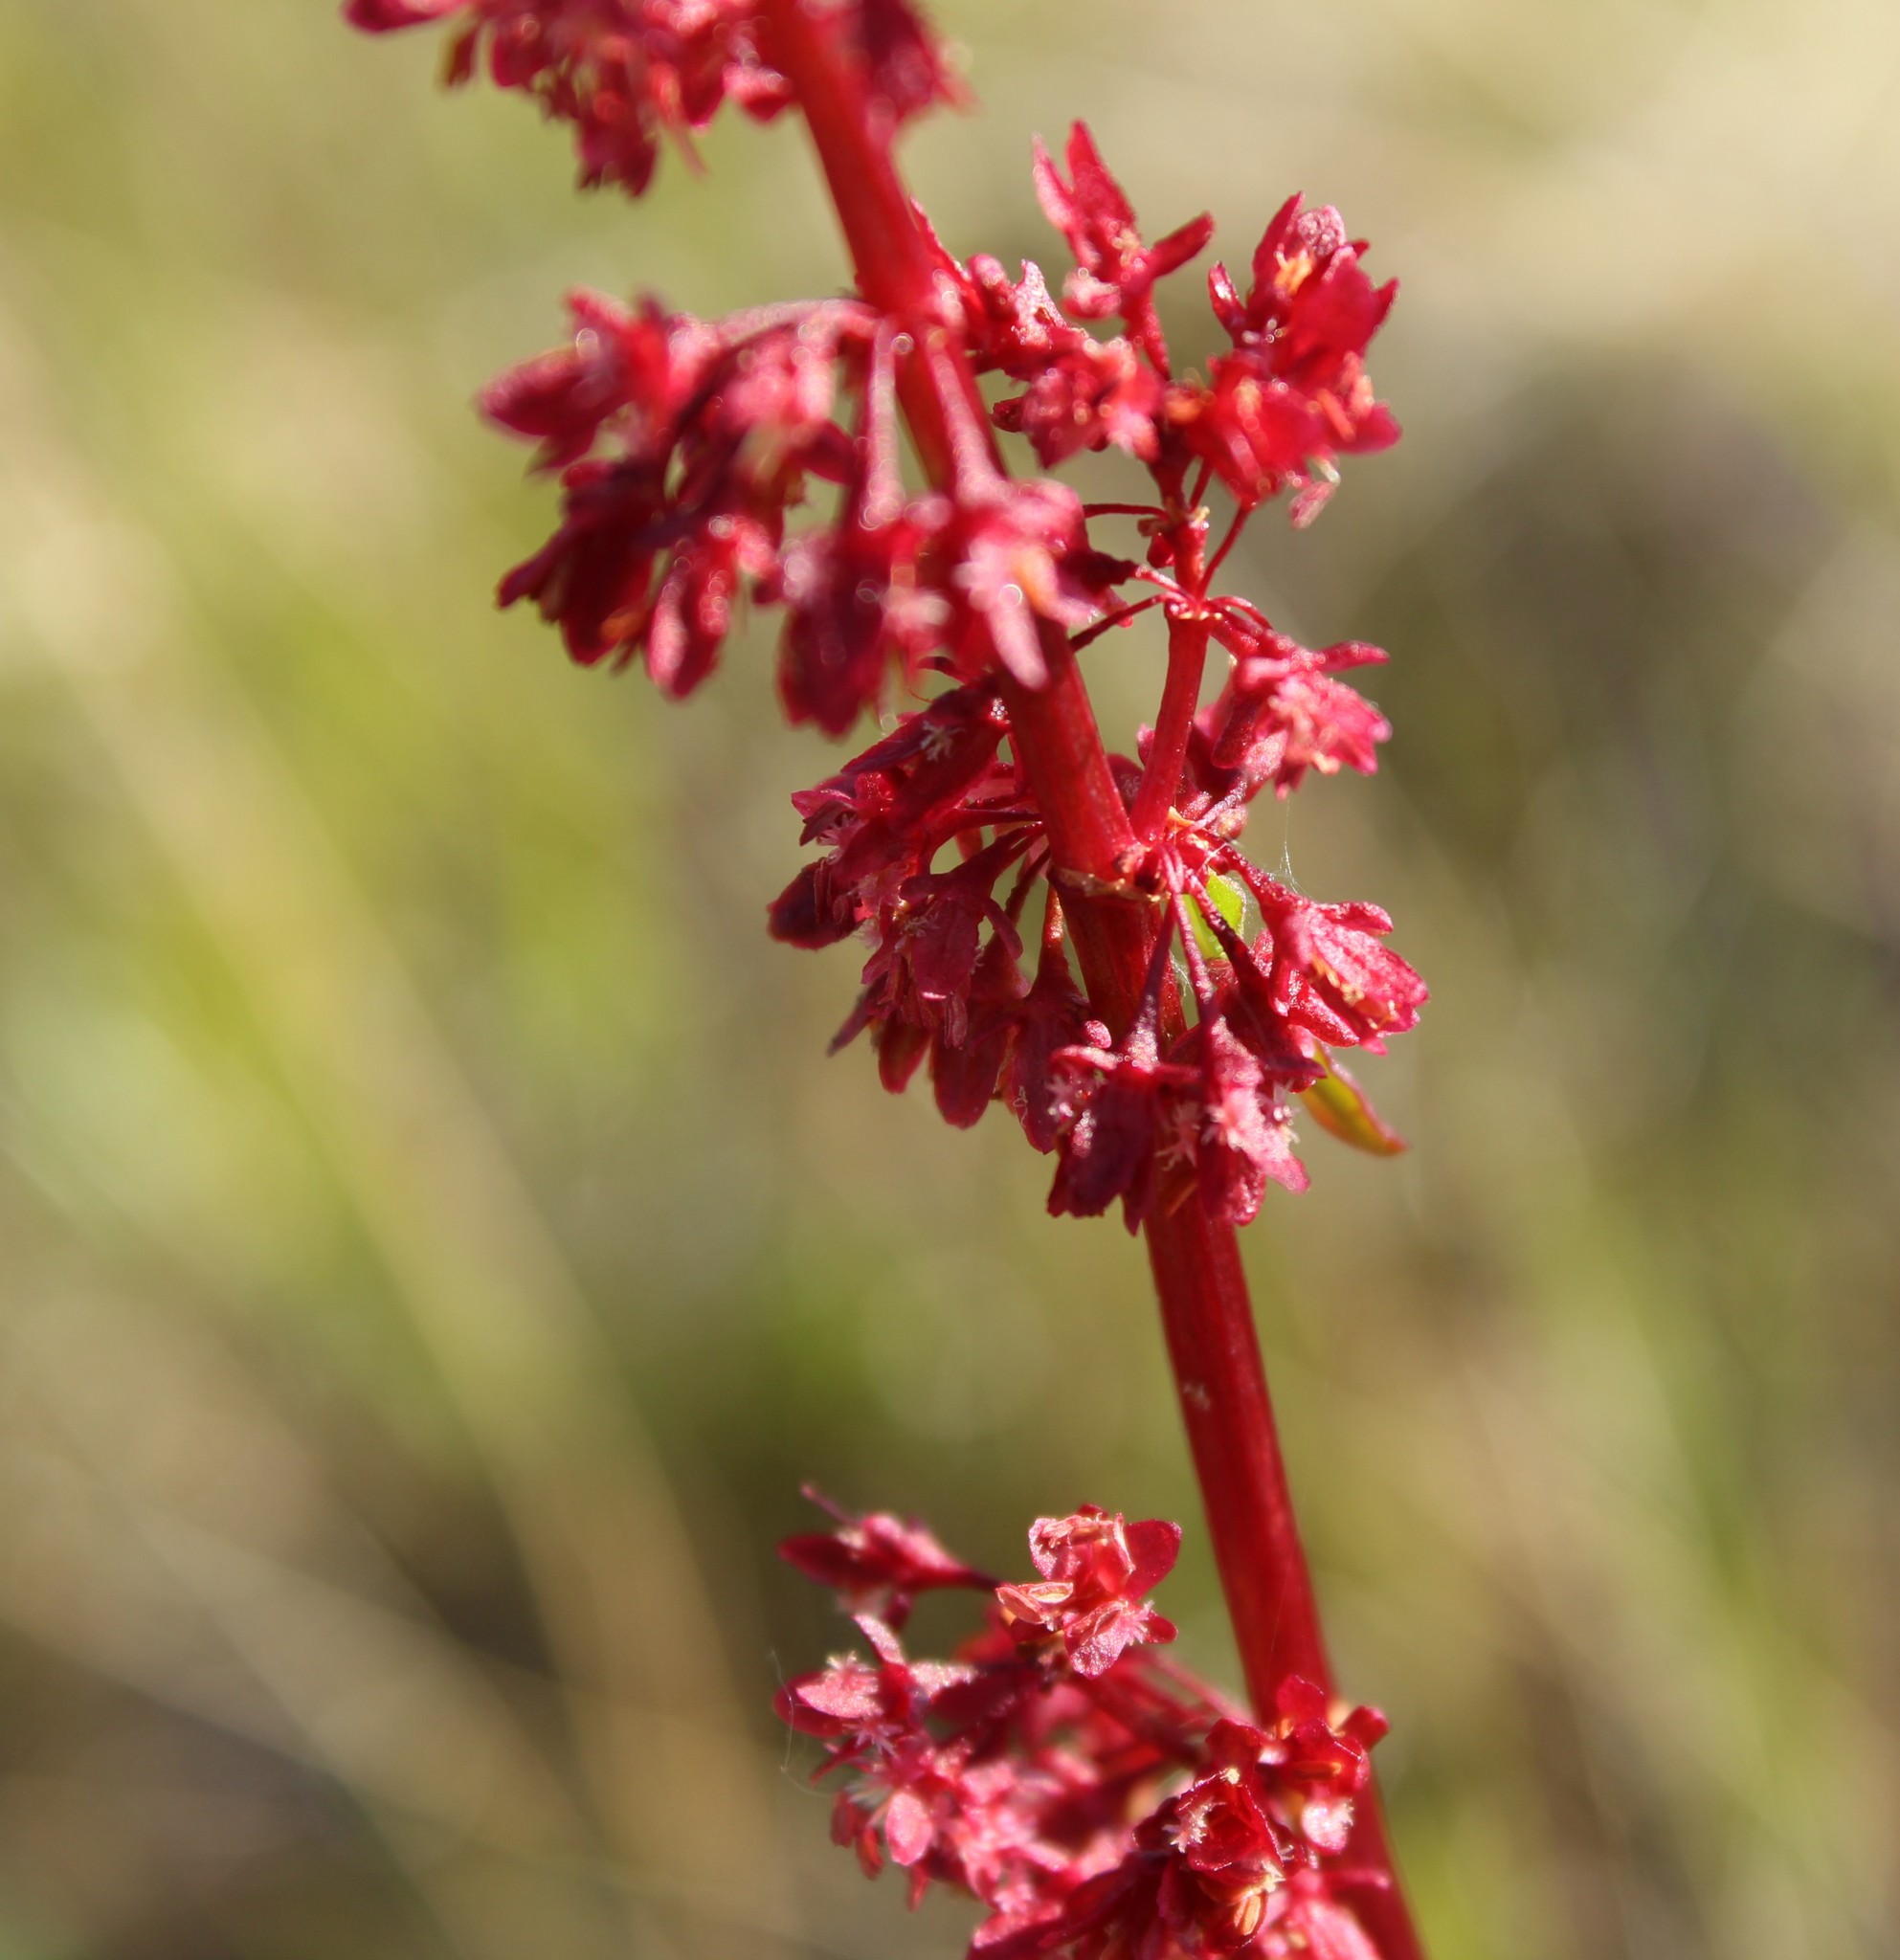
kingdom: Plantae
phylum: Tracheophyta
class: Magnoliopsida
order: Caryophyllales
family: Polygonaceae
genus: Rumex
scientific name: Rumex arcticus
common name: Arctic dock
